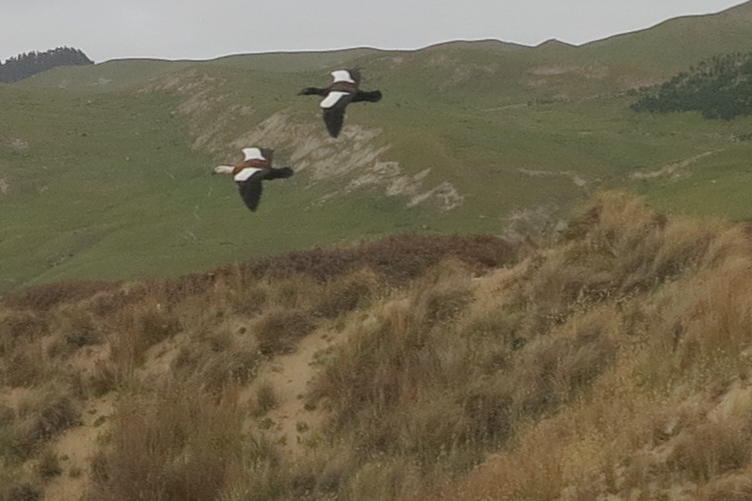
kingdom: Animalia
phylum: Chordata
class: Aves
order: Anseriformes
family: Anatidae
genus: Tadorna
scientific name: Tadorna variegata
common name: Paradise shelduck
